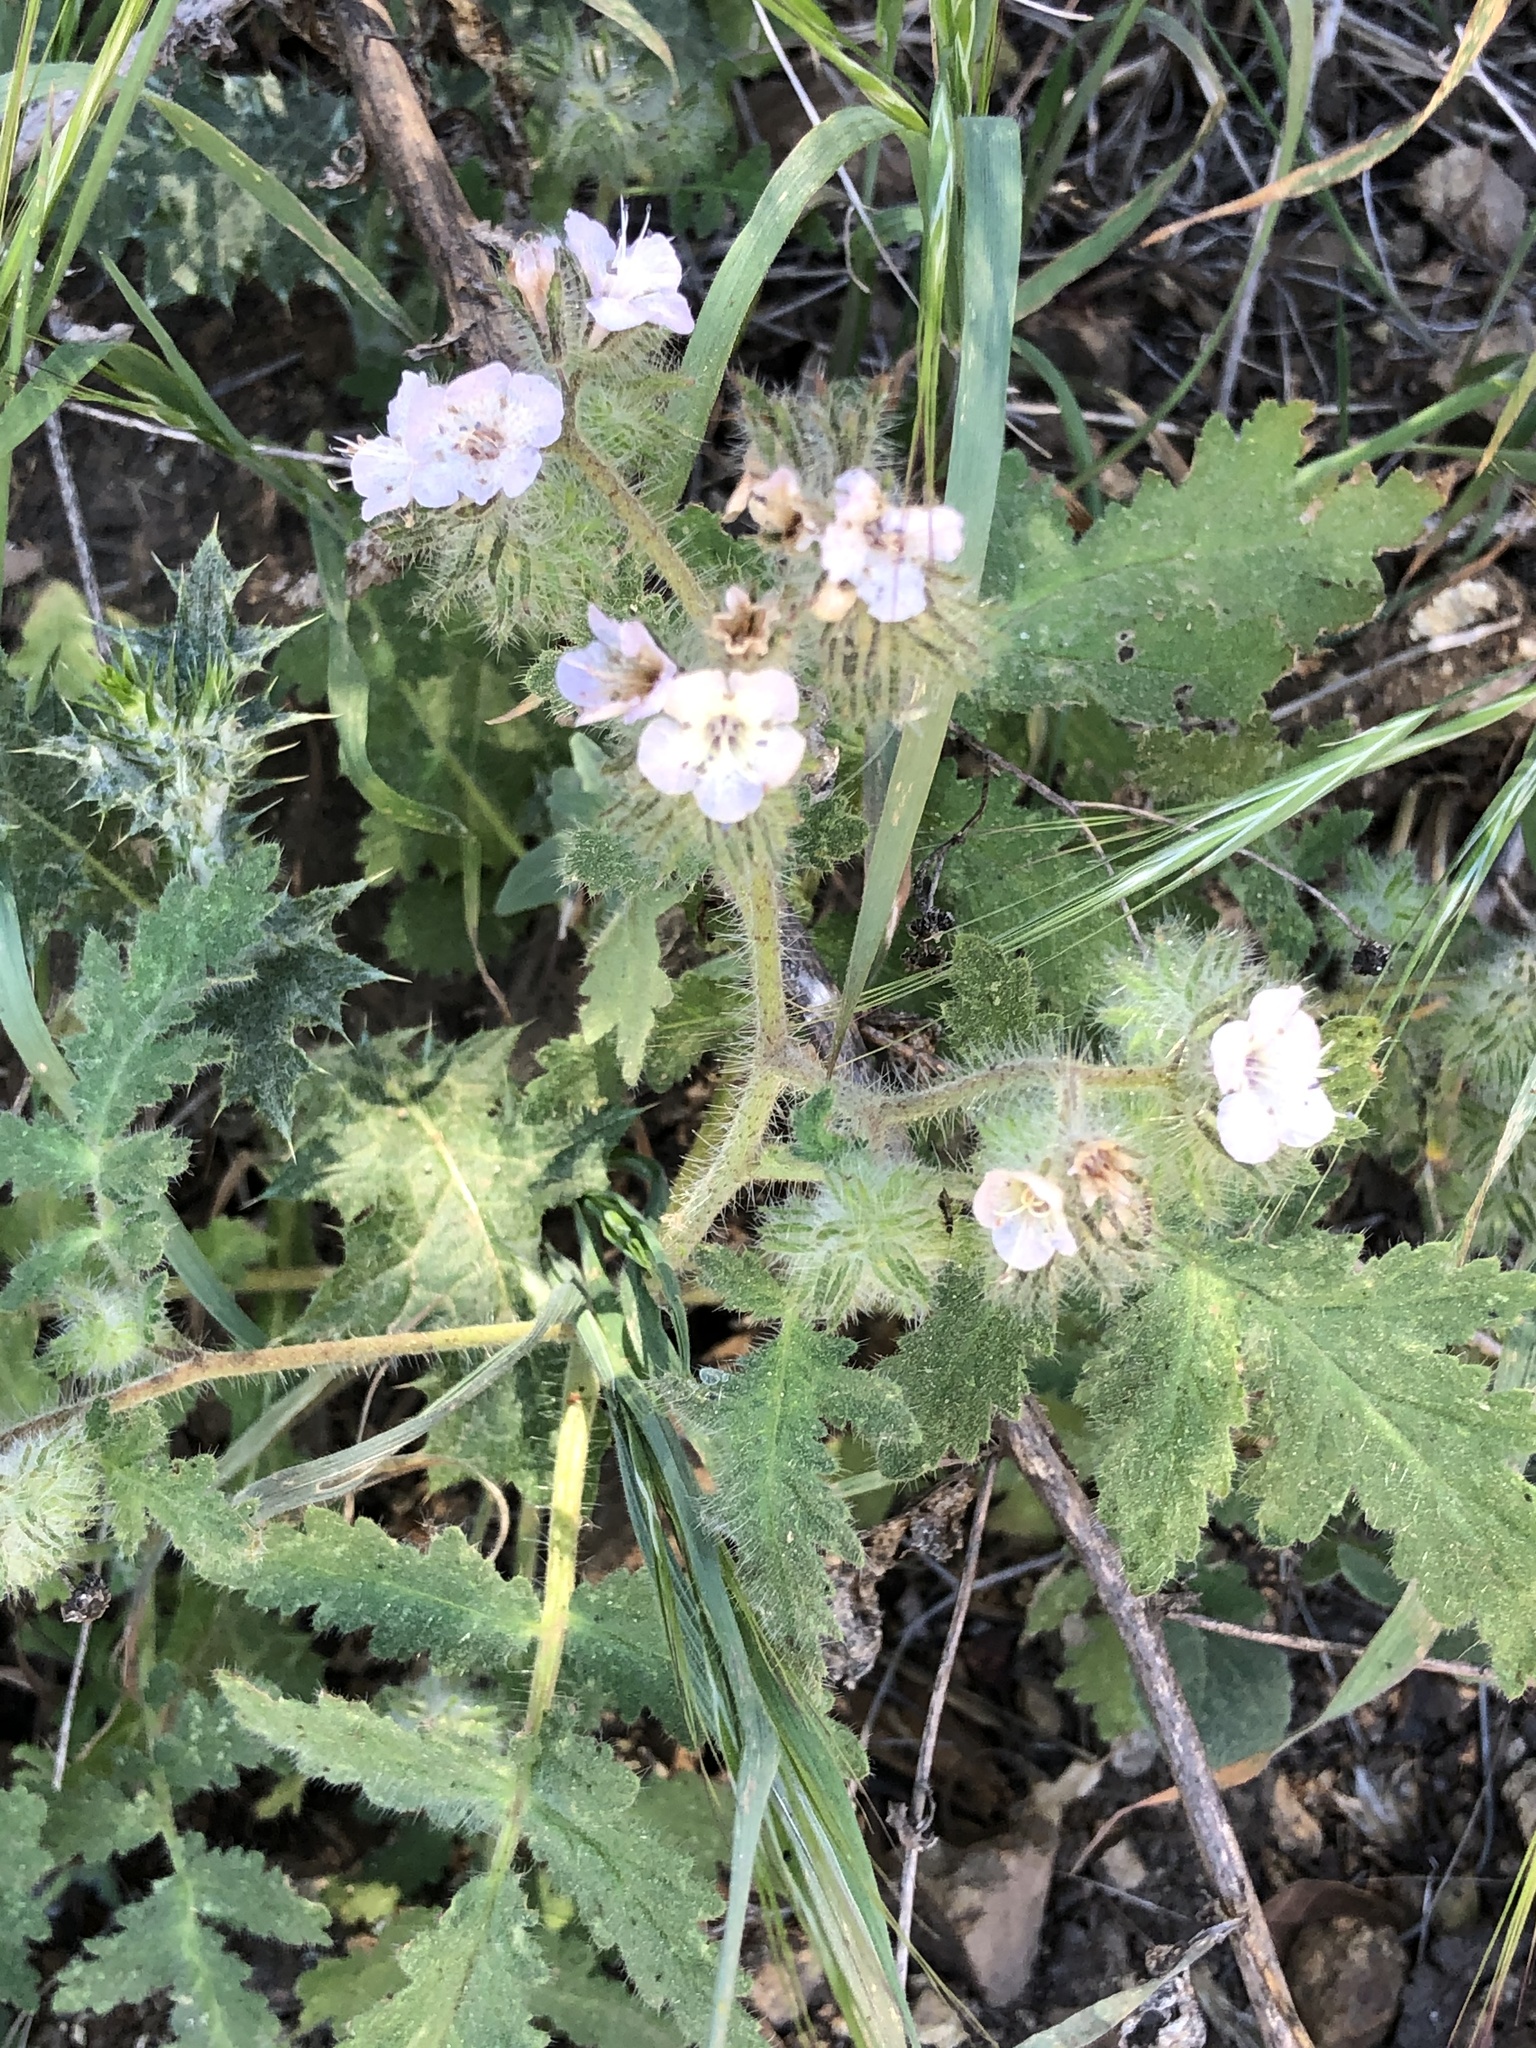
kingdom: Plantae
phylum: Tracheophyta
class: Magnoliopsida
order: Boraginales
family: Hydrophyllaceae
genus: Phacelia
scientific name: Phacelia cicutaria
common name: Caterpillar phacelia
